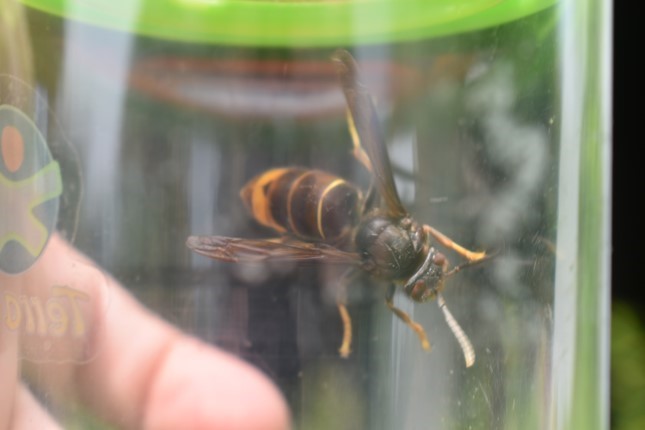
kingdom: Animalia
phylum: Arthropoda
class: Insecta
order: Hymenoptera
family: Vespidae
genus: Vespa
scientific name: Vespa velutina
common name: Asian hornet
